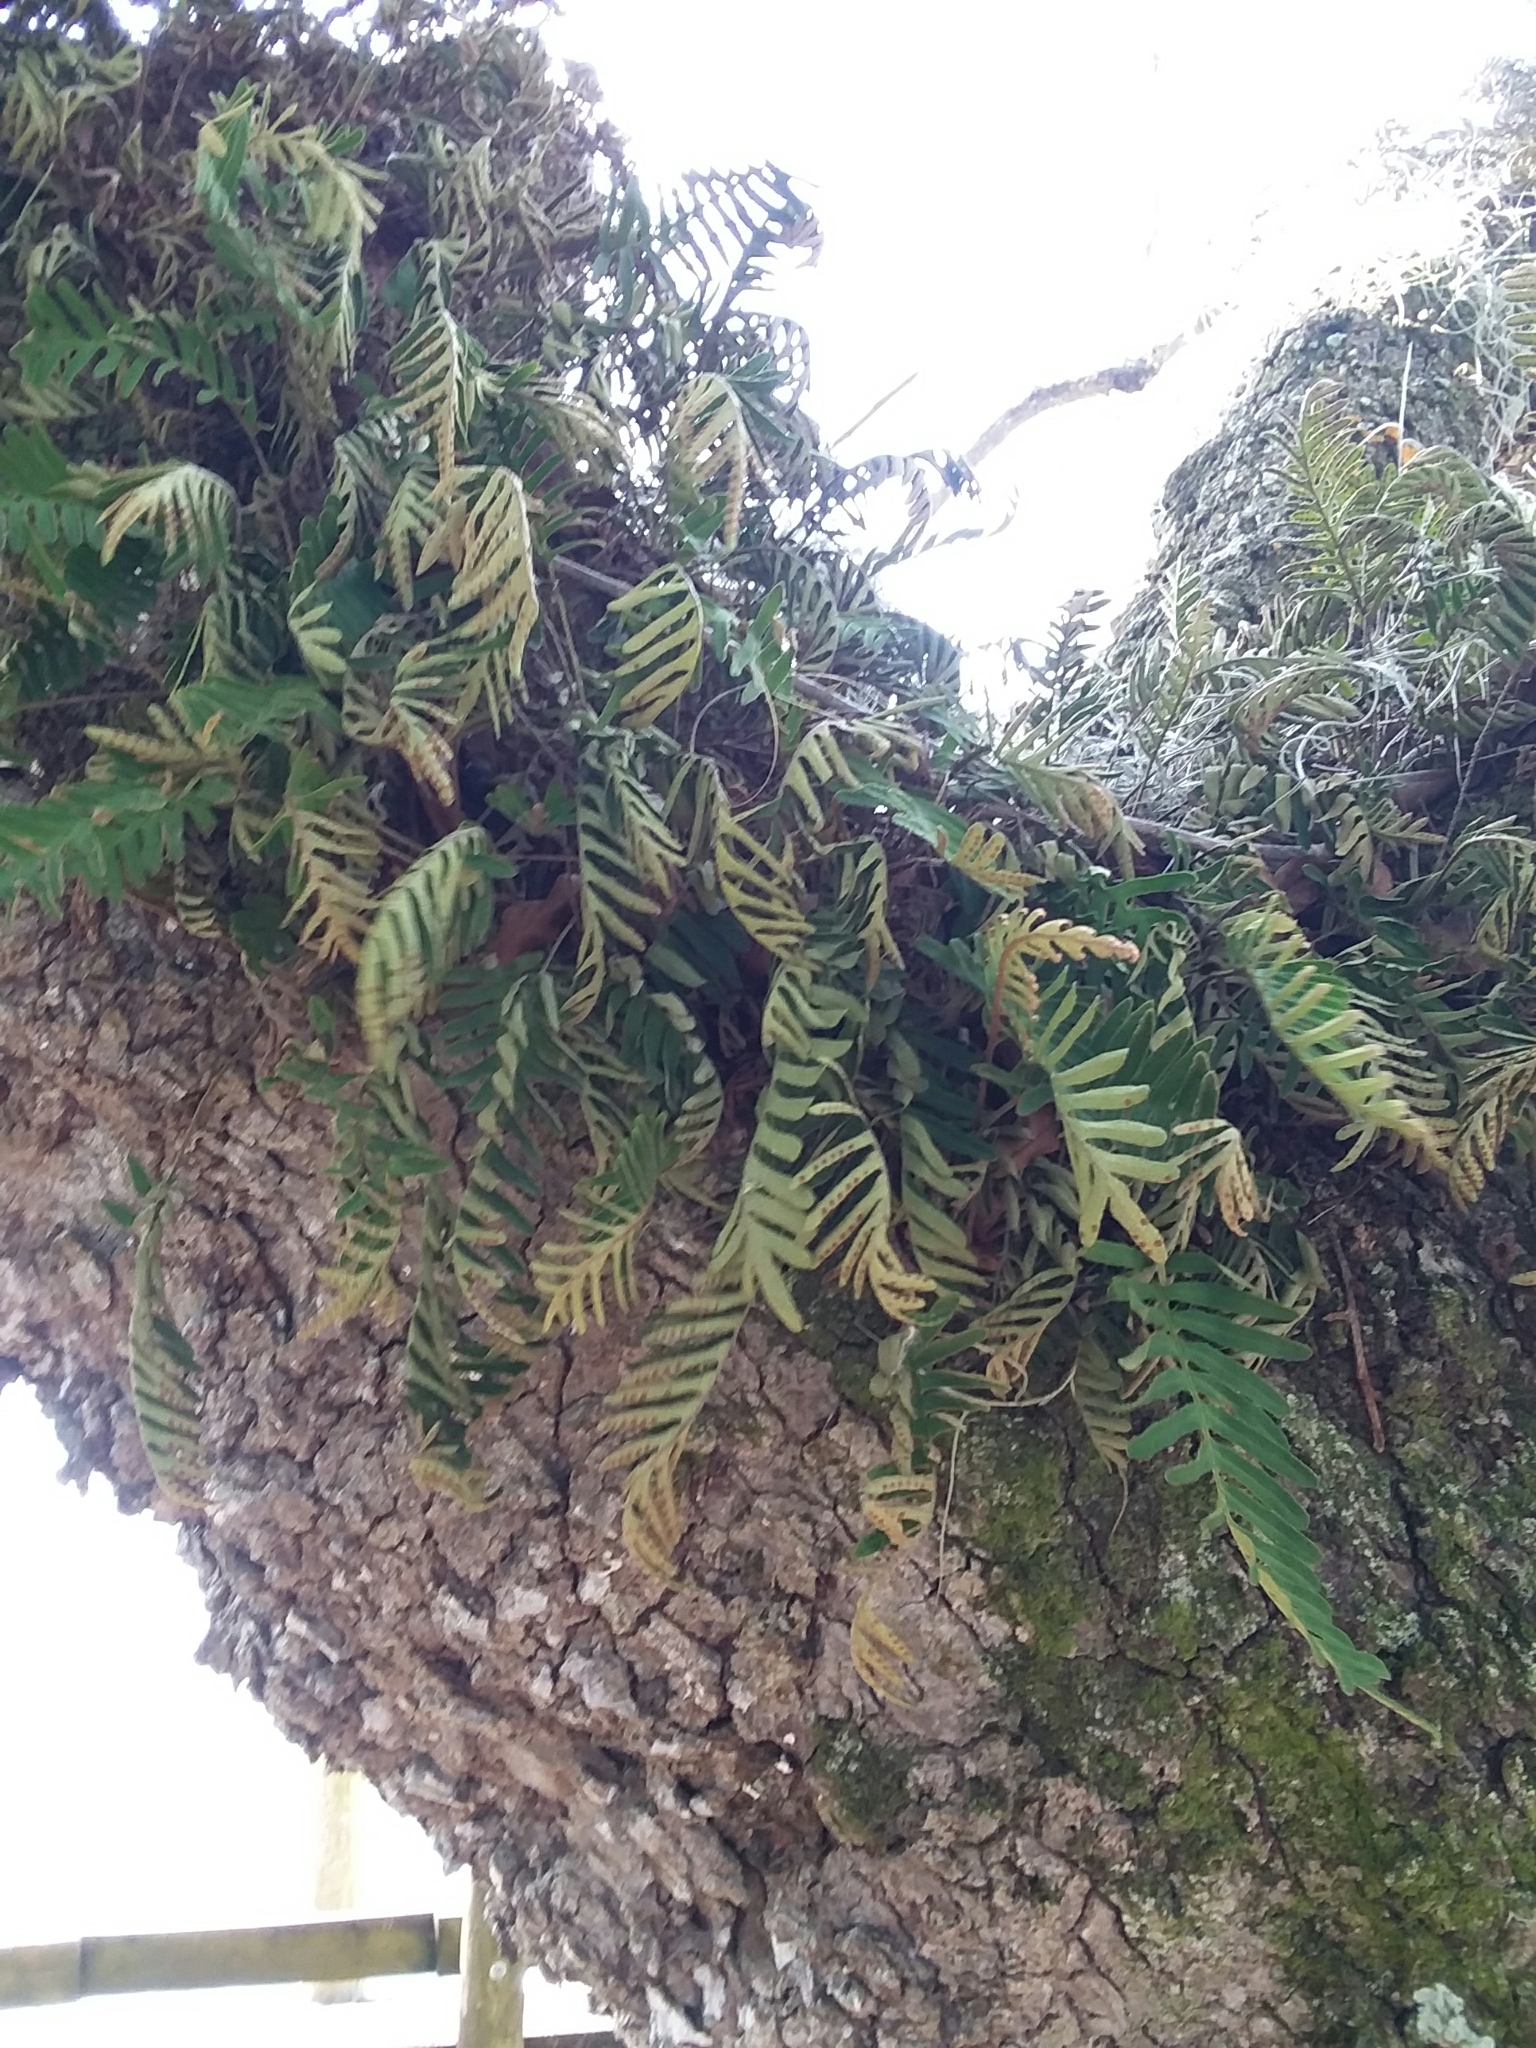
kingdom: Plantae
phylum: Tracheophyta
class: Polypodiopsida
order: Polypodiales
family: Polypodiaceae
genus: Pleopeltis
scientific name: Pleopeltis michauxiana
